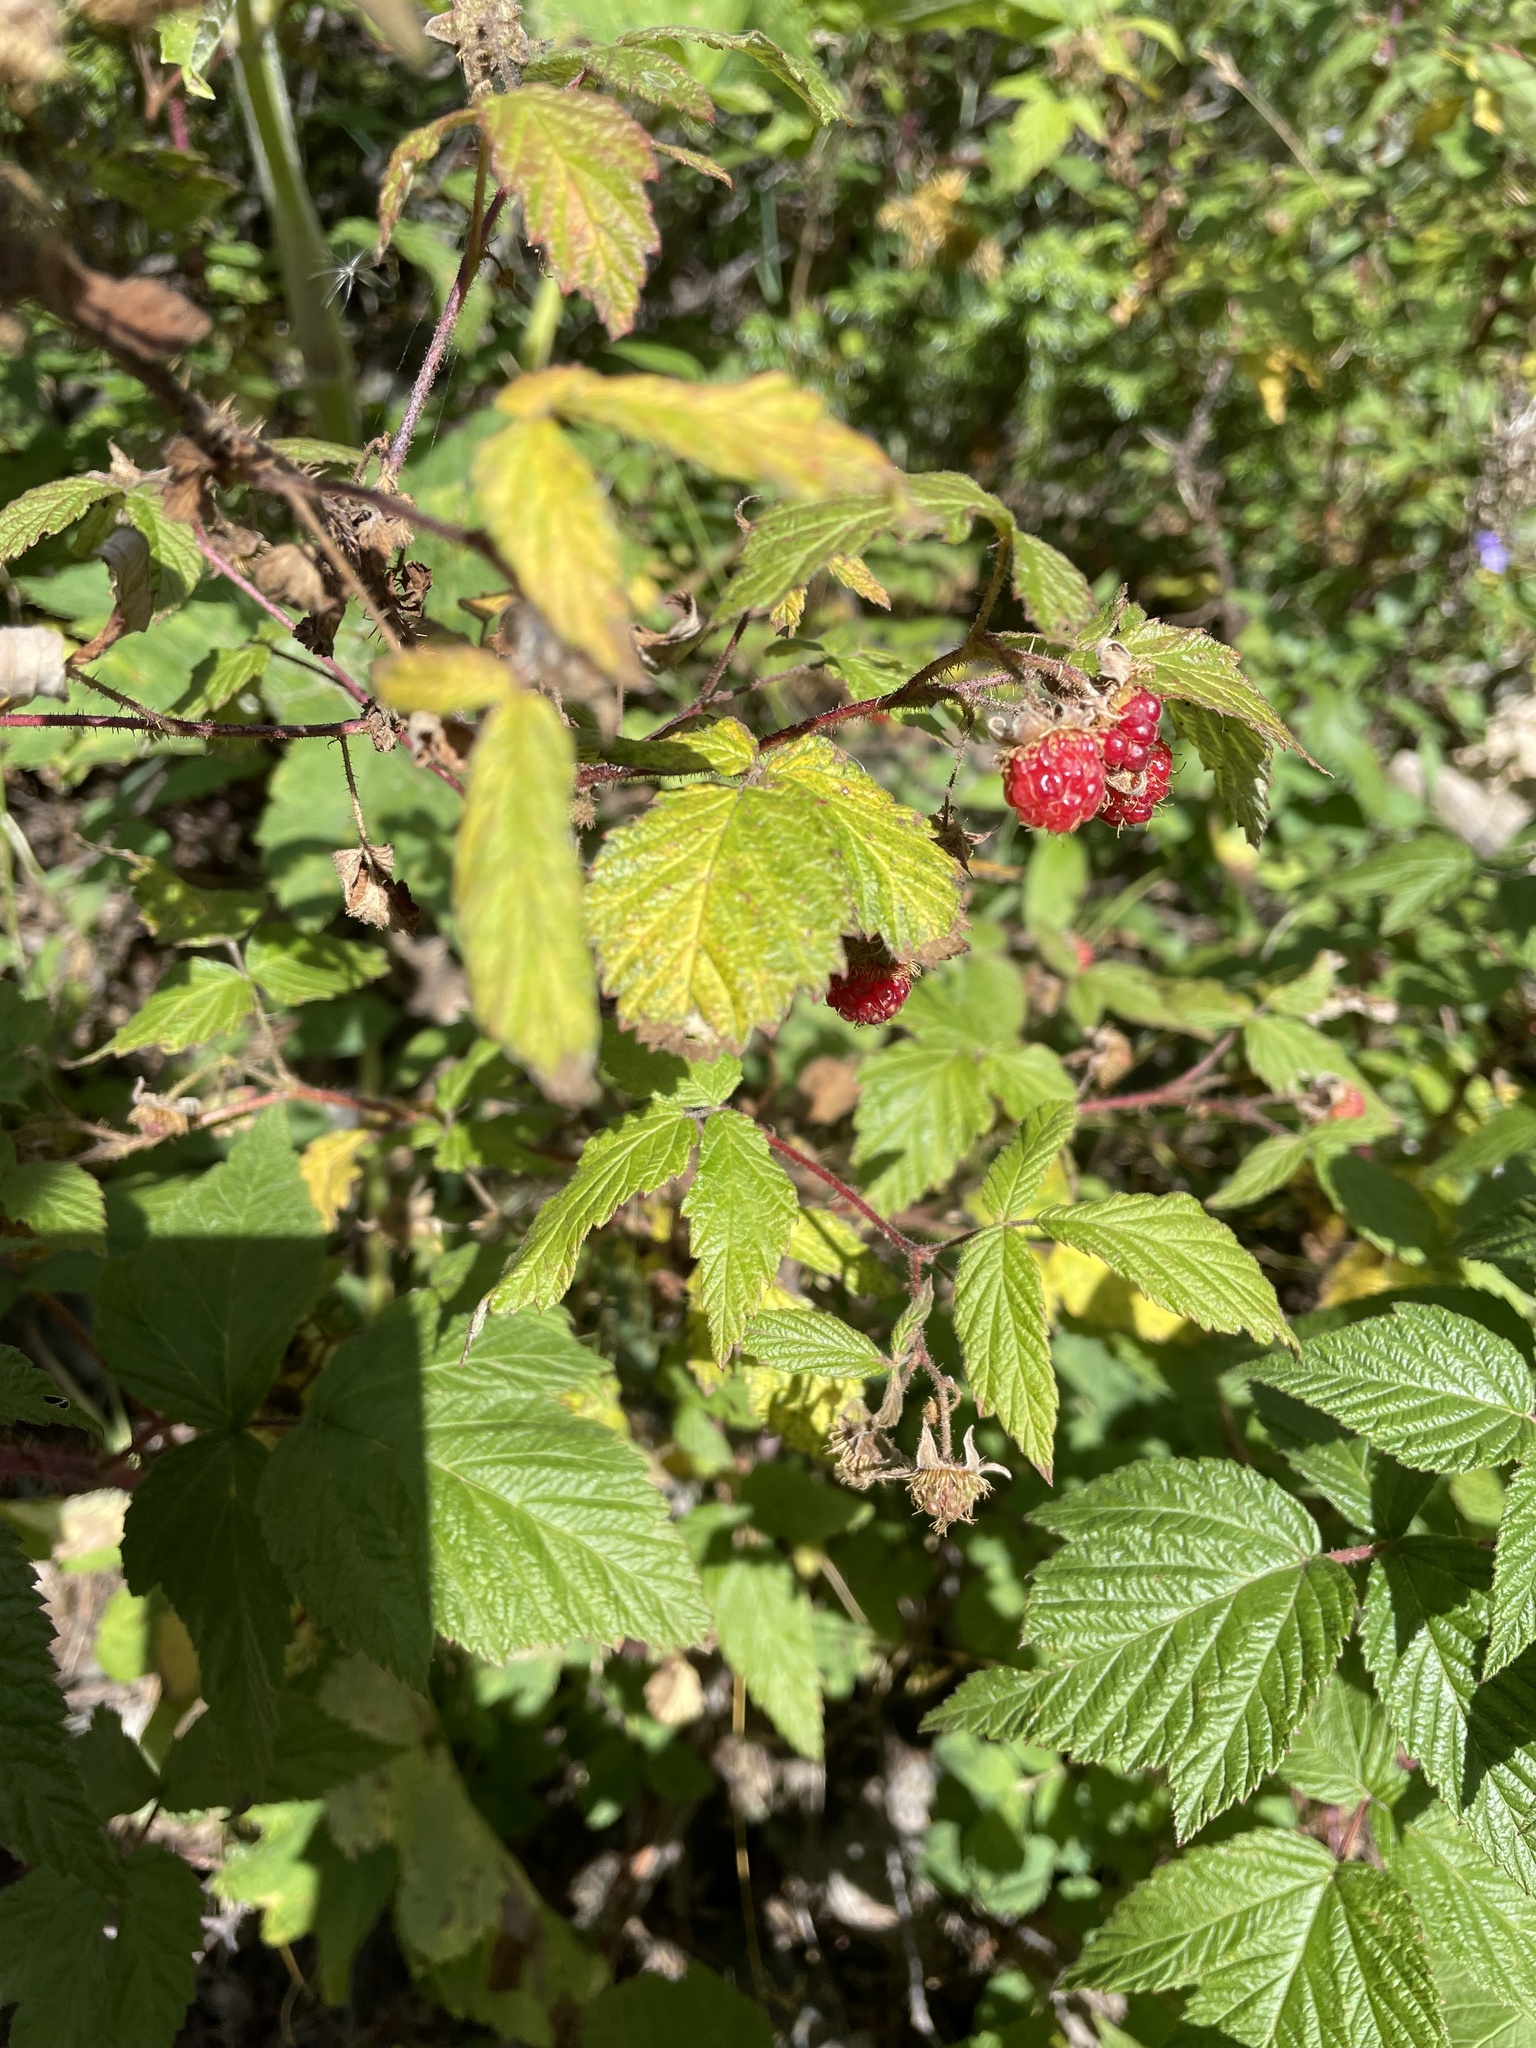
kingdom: Plantae
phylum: Tracheophyta
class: Magnoliopsida
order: Rosales
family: Rosaceae
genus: Rubus
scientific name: Rubus idaeus
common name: Raspberry
